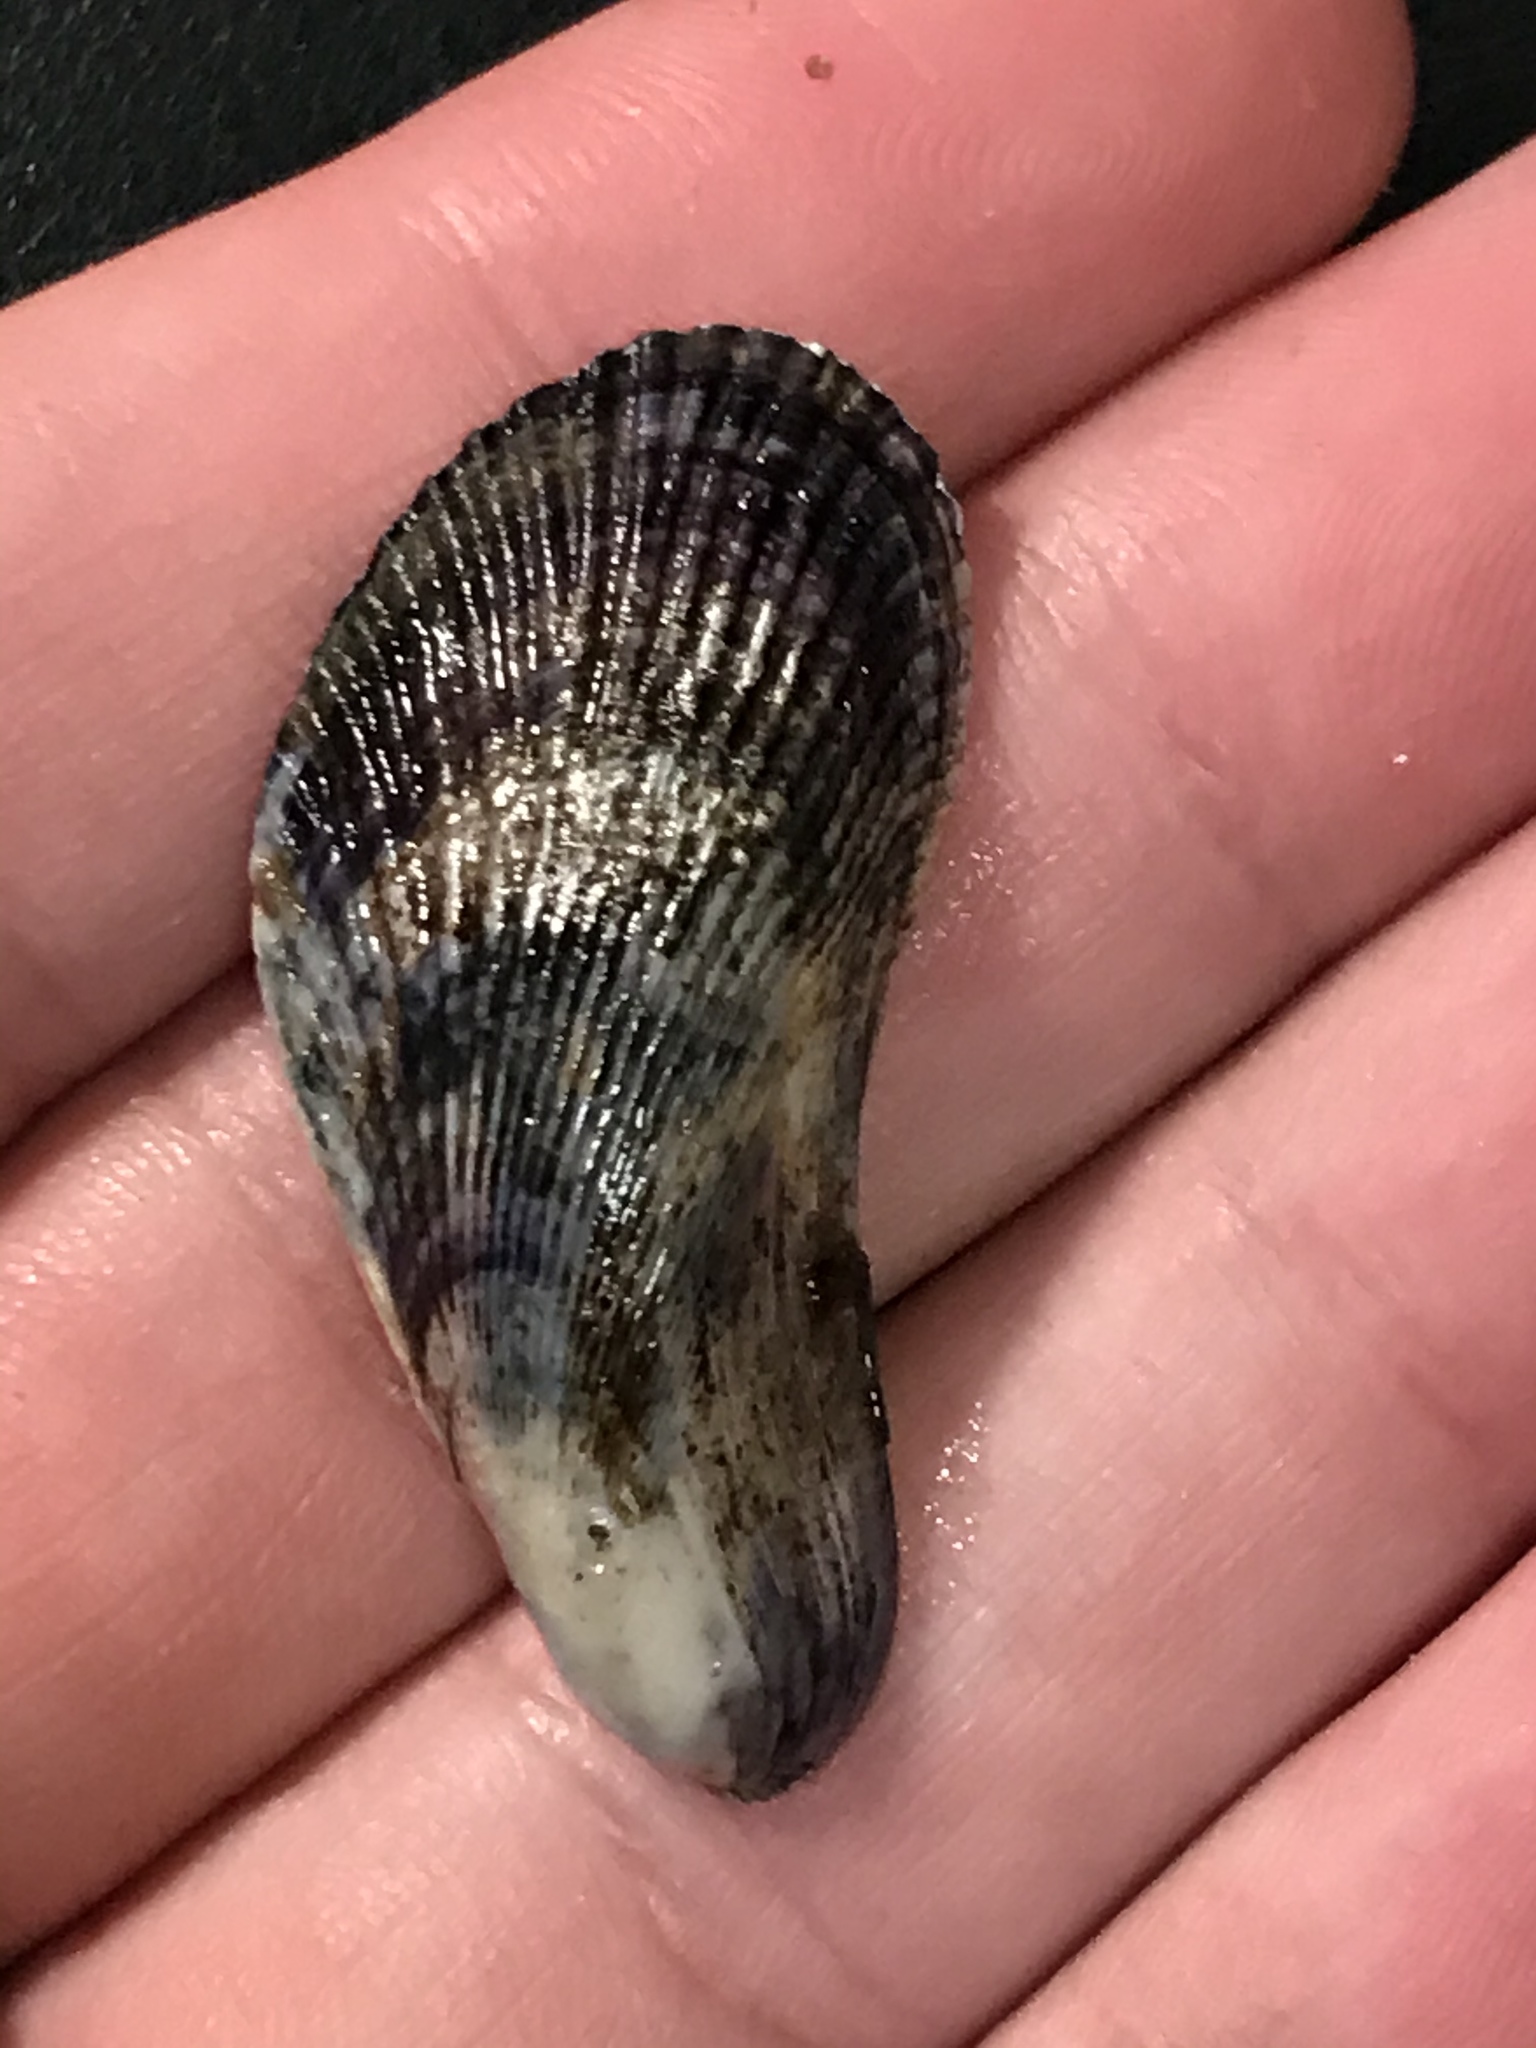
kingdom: Animalia
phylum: Mollusca
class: Bivalvia
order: Mytilida
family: Mytilidae
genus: Geukensia
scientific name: Geukensia demissa
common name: Ribbed mussel
